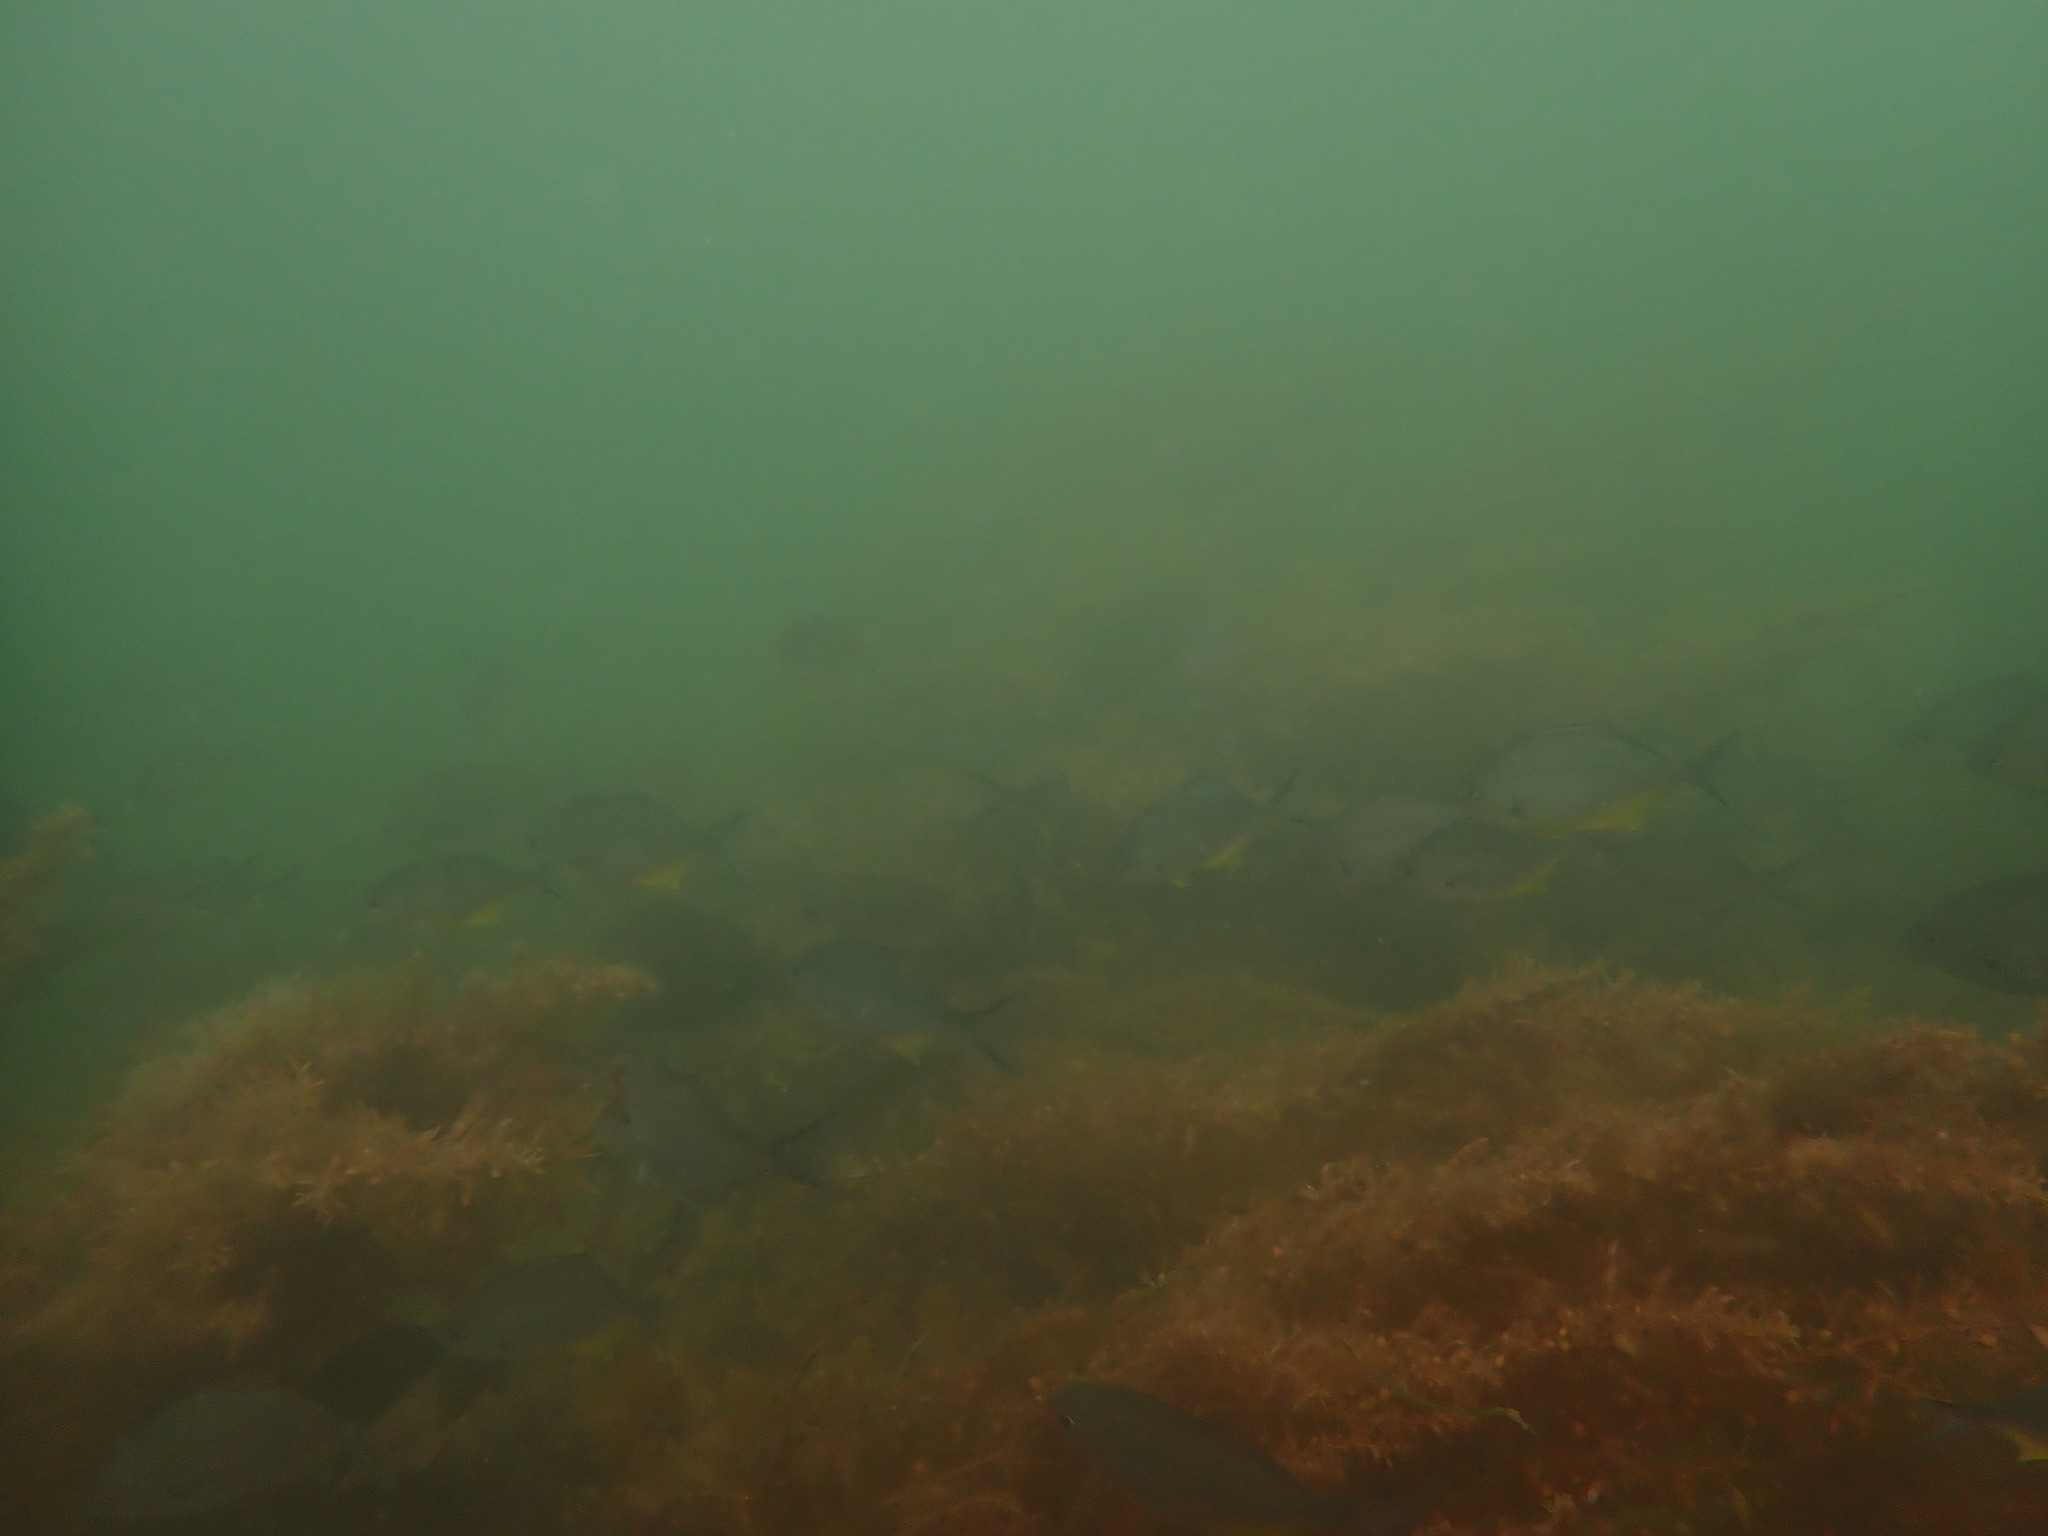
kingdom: Animalia
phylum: Chordata
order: Perciformes
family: Kyphosidae
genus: Scorpis
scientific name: Scorpis violacea
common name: Blue maomao
